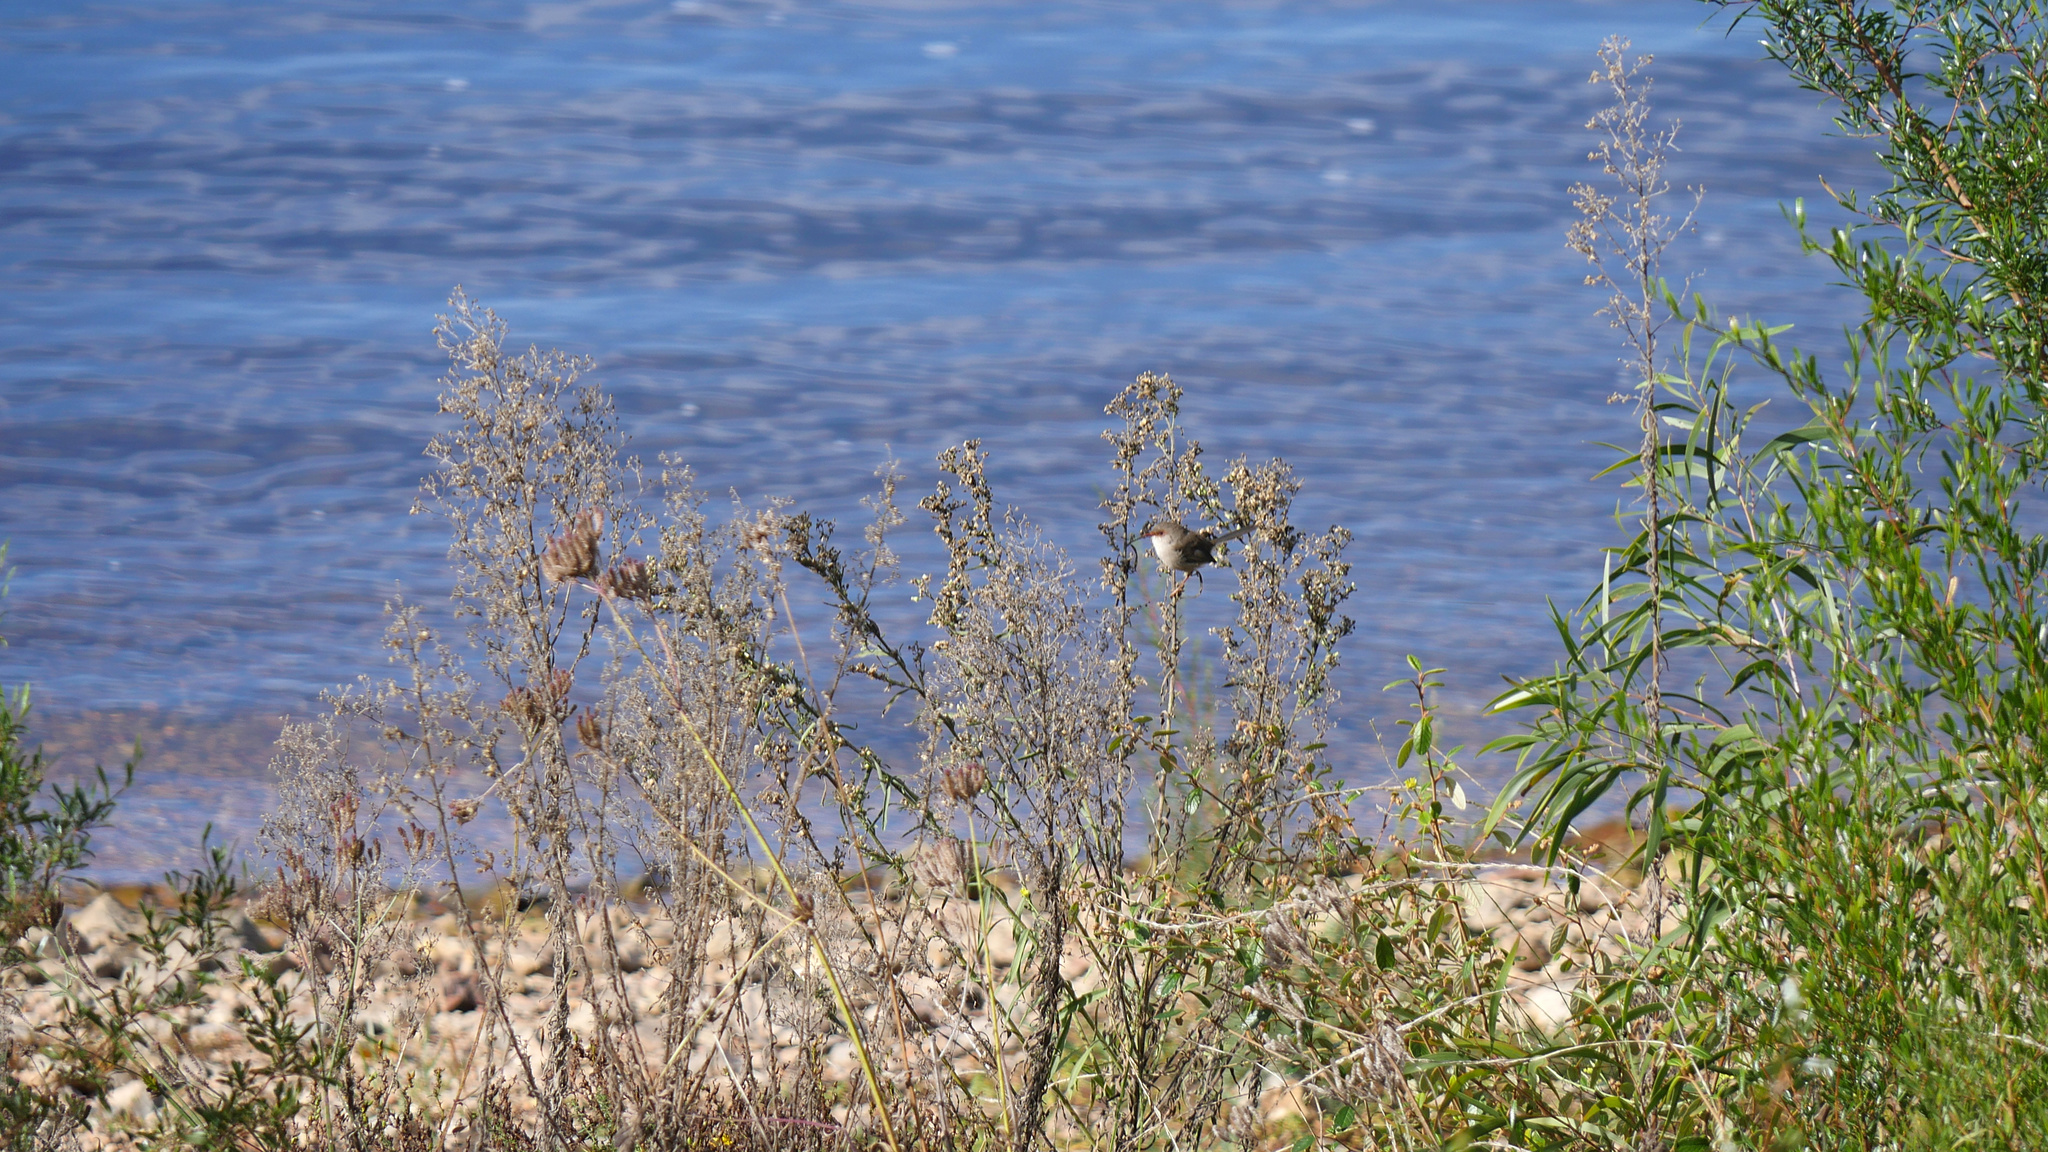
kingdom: Animalia
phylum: Chordata
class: Aves
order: Passeriformes
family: Maluridae
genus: Malurus
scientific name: Malurus cyaneus
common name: Superb fairywren
